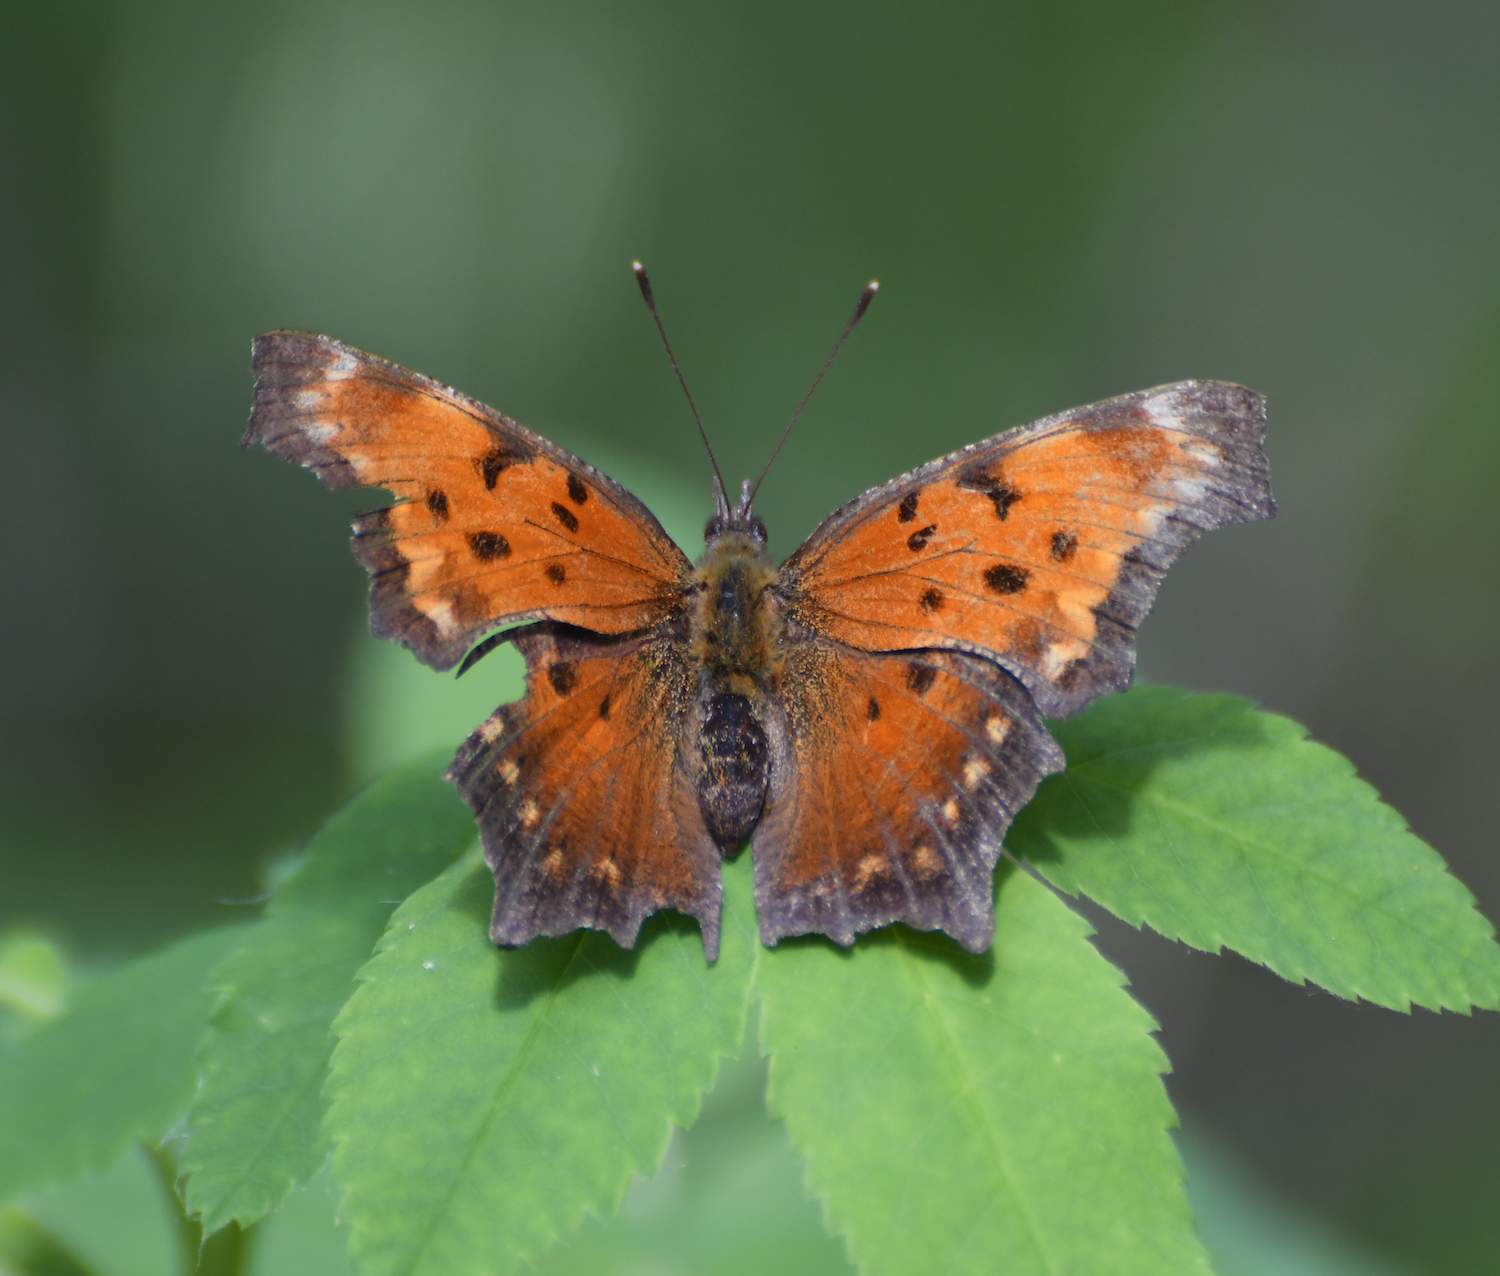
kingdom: Animalia
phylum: Arthropoda
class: Insecta
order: Lepidoptera
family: Nymphalidae
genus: Polygonia
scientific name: Polygonia progne
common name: Gray comma
